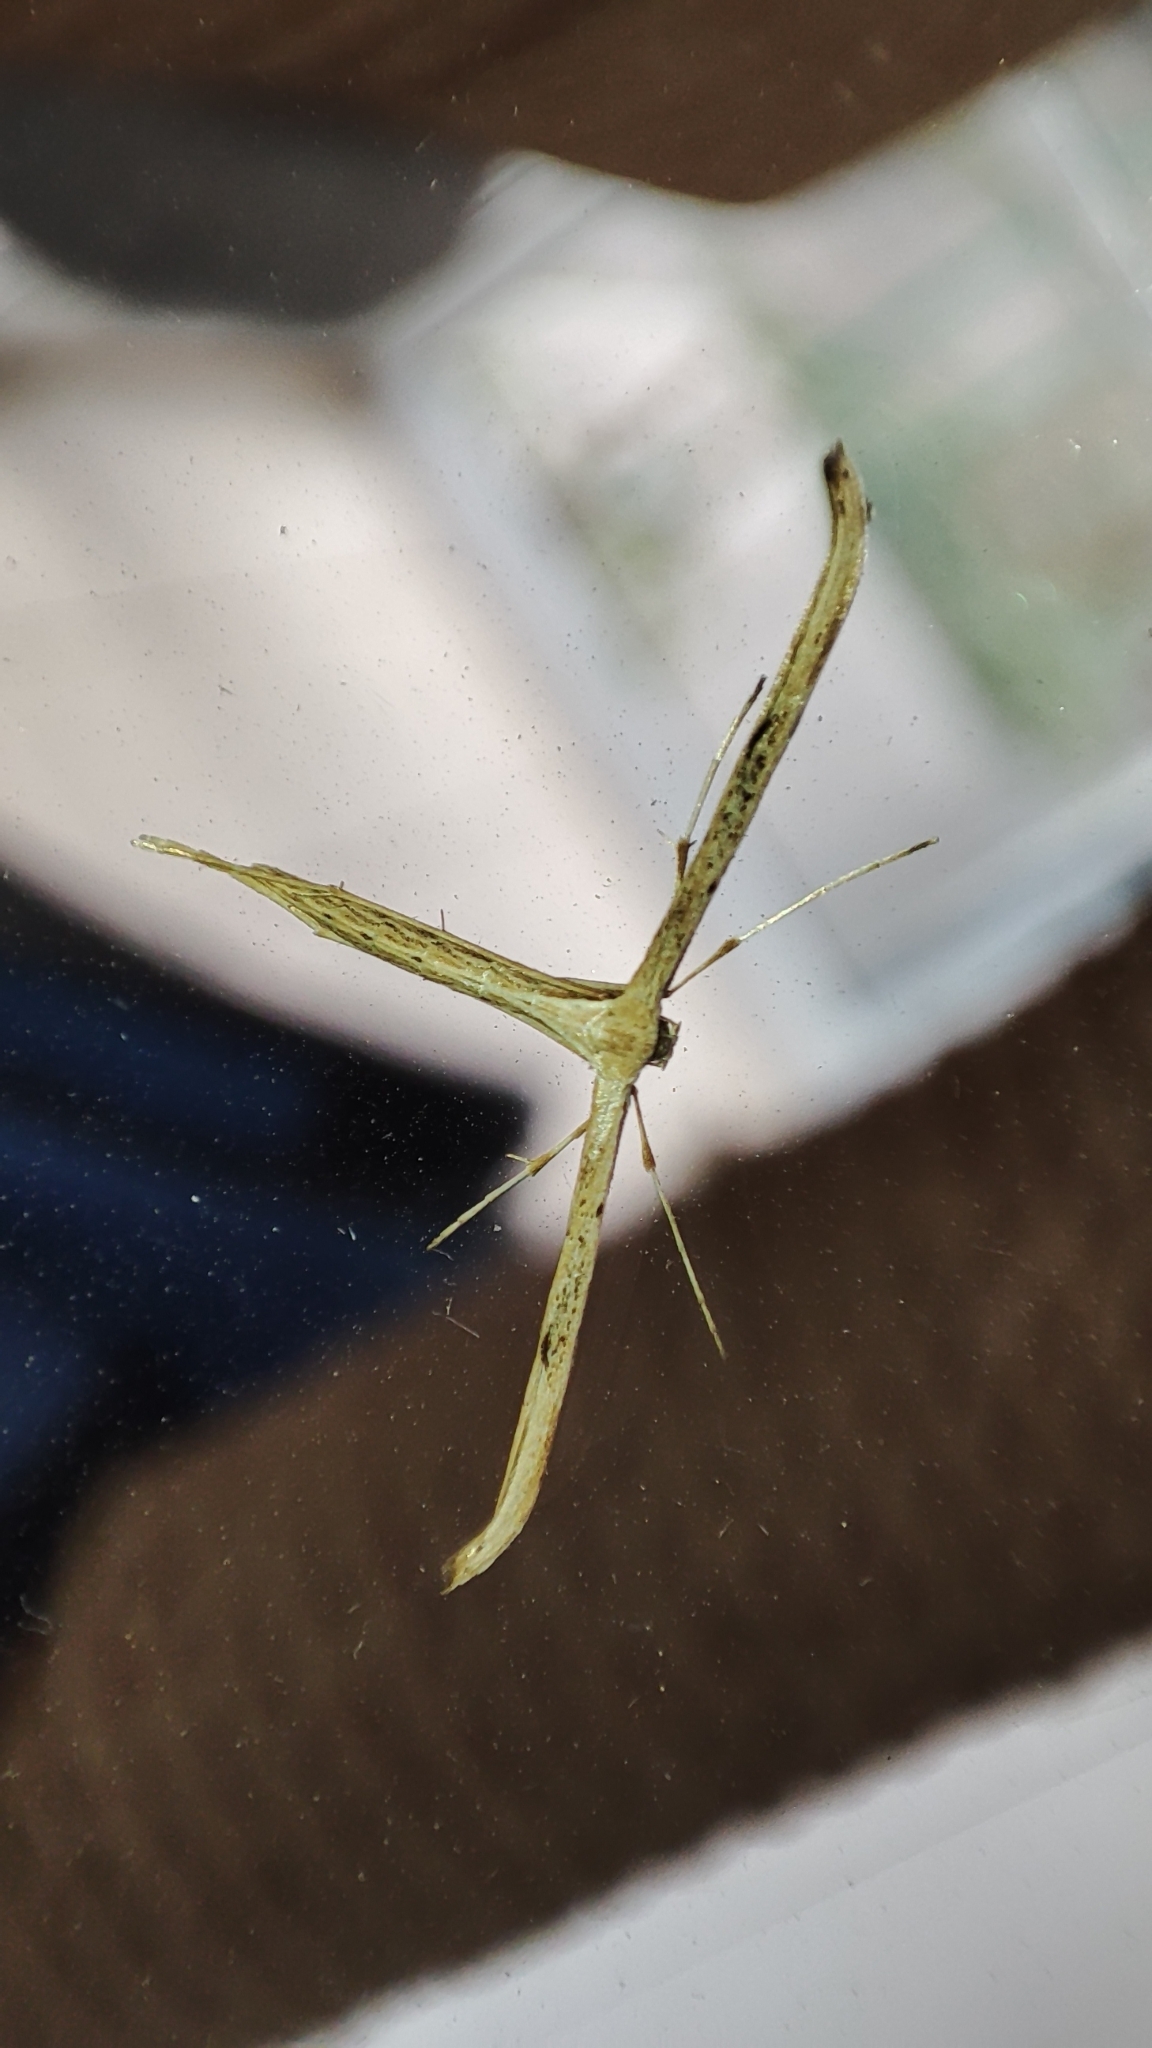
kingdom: Animalia
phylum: Arthropoda
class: Insecta
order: Lepidoptera
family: Pterophoridae
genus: Emmelina
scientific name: Emmelina monodactyla
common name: Common plume
